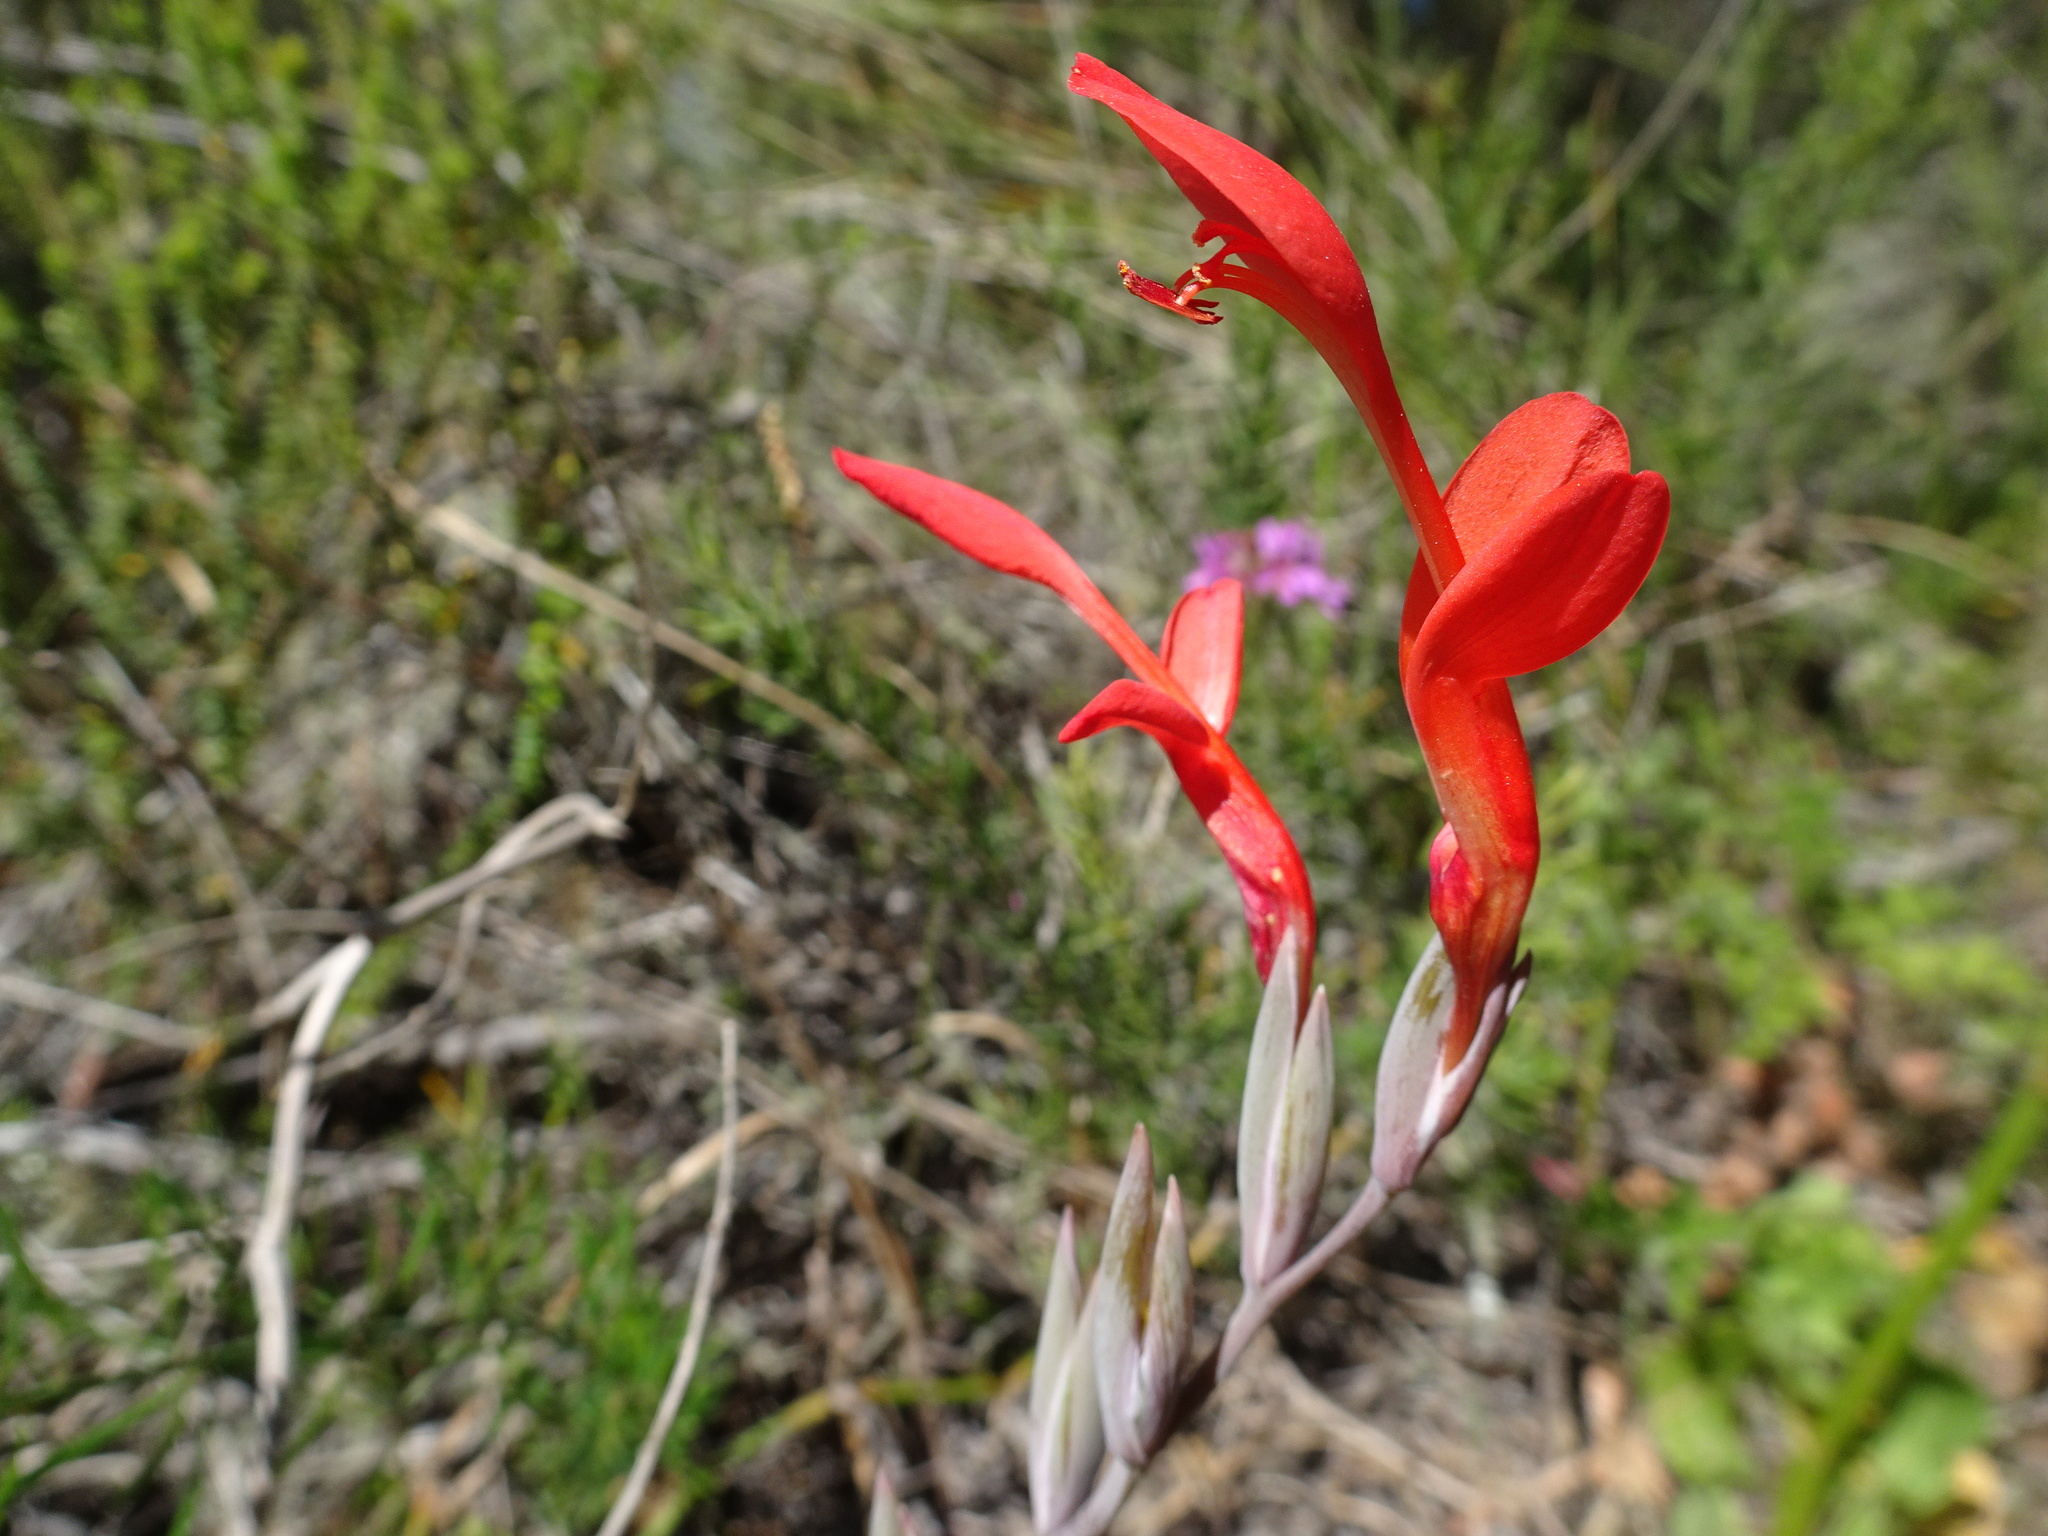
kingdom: Plantae
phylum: Tracheophyta
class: Liliopsida
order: Asparagales
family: Iridaceae
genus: Gladiolus
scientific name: Gladiolus cunonius
